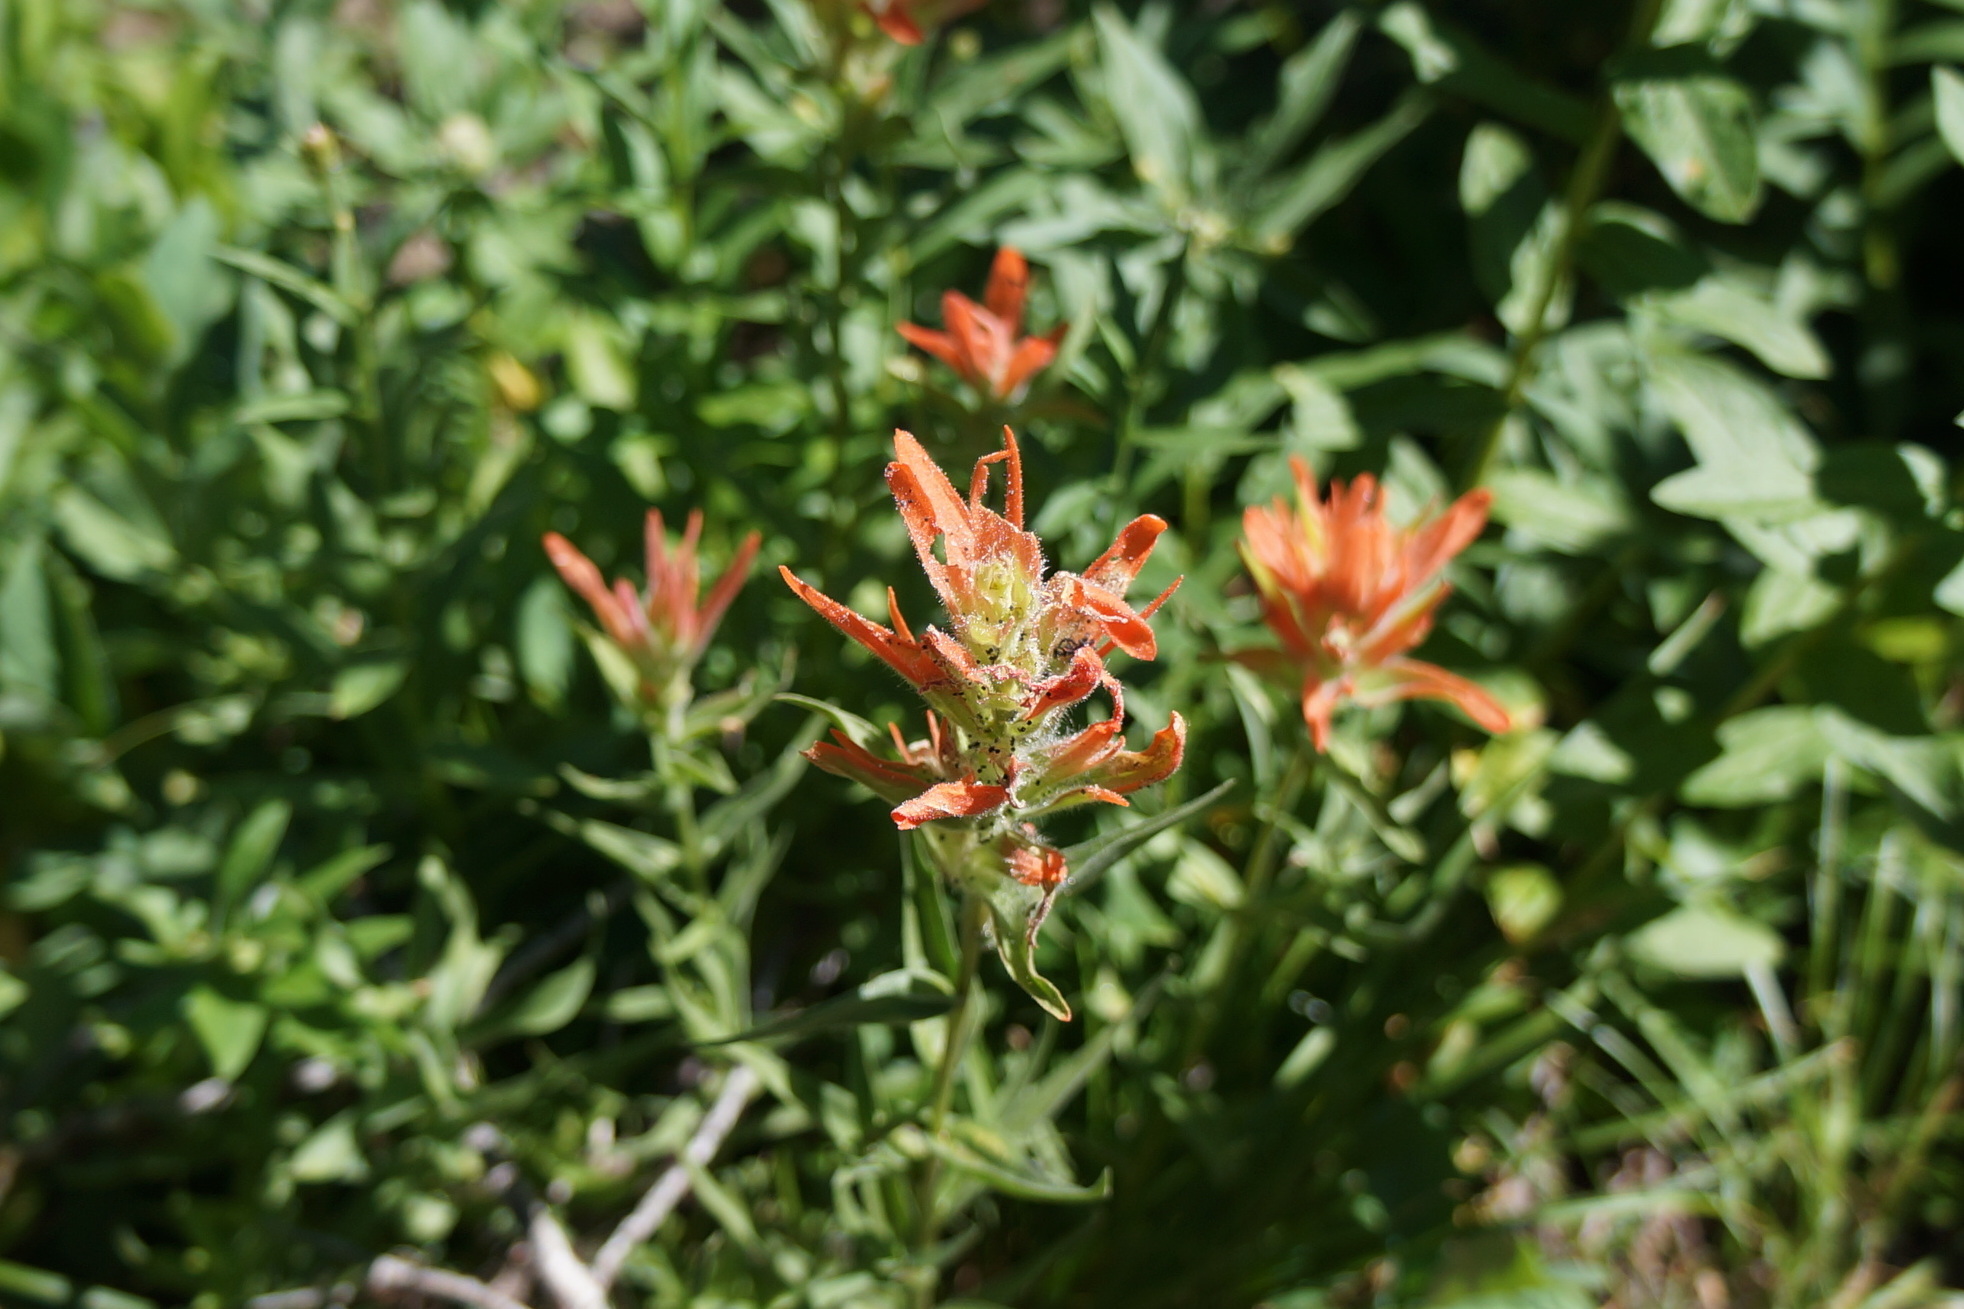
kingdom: Plantae
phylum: Tracheophyta
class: Magnoliopsida
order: Lamiales
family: Orobanchaceae
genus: Castilleja
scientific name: Castilleja miniata
